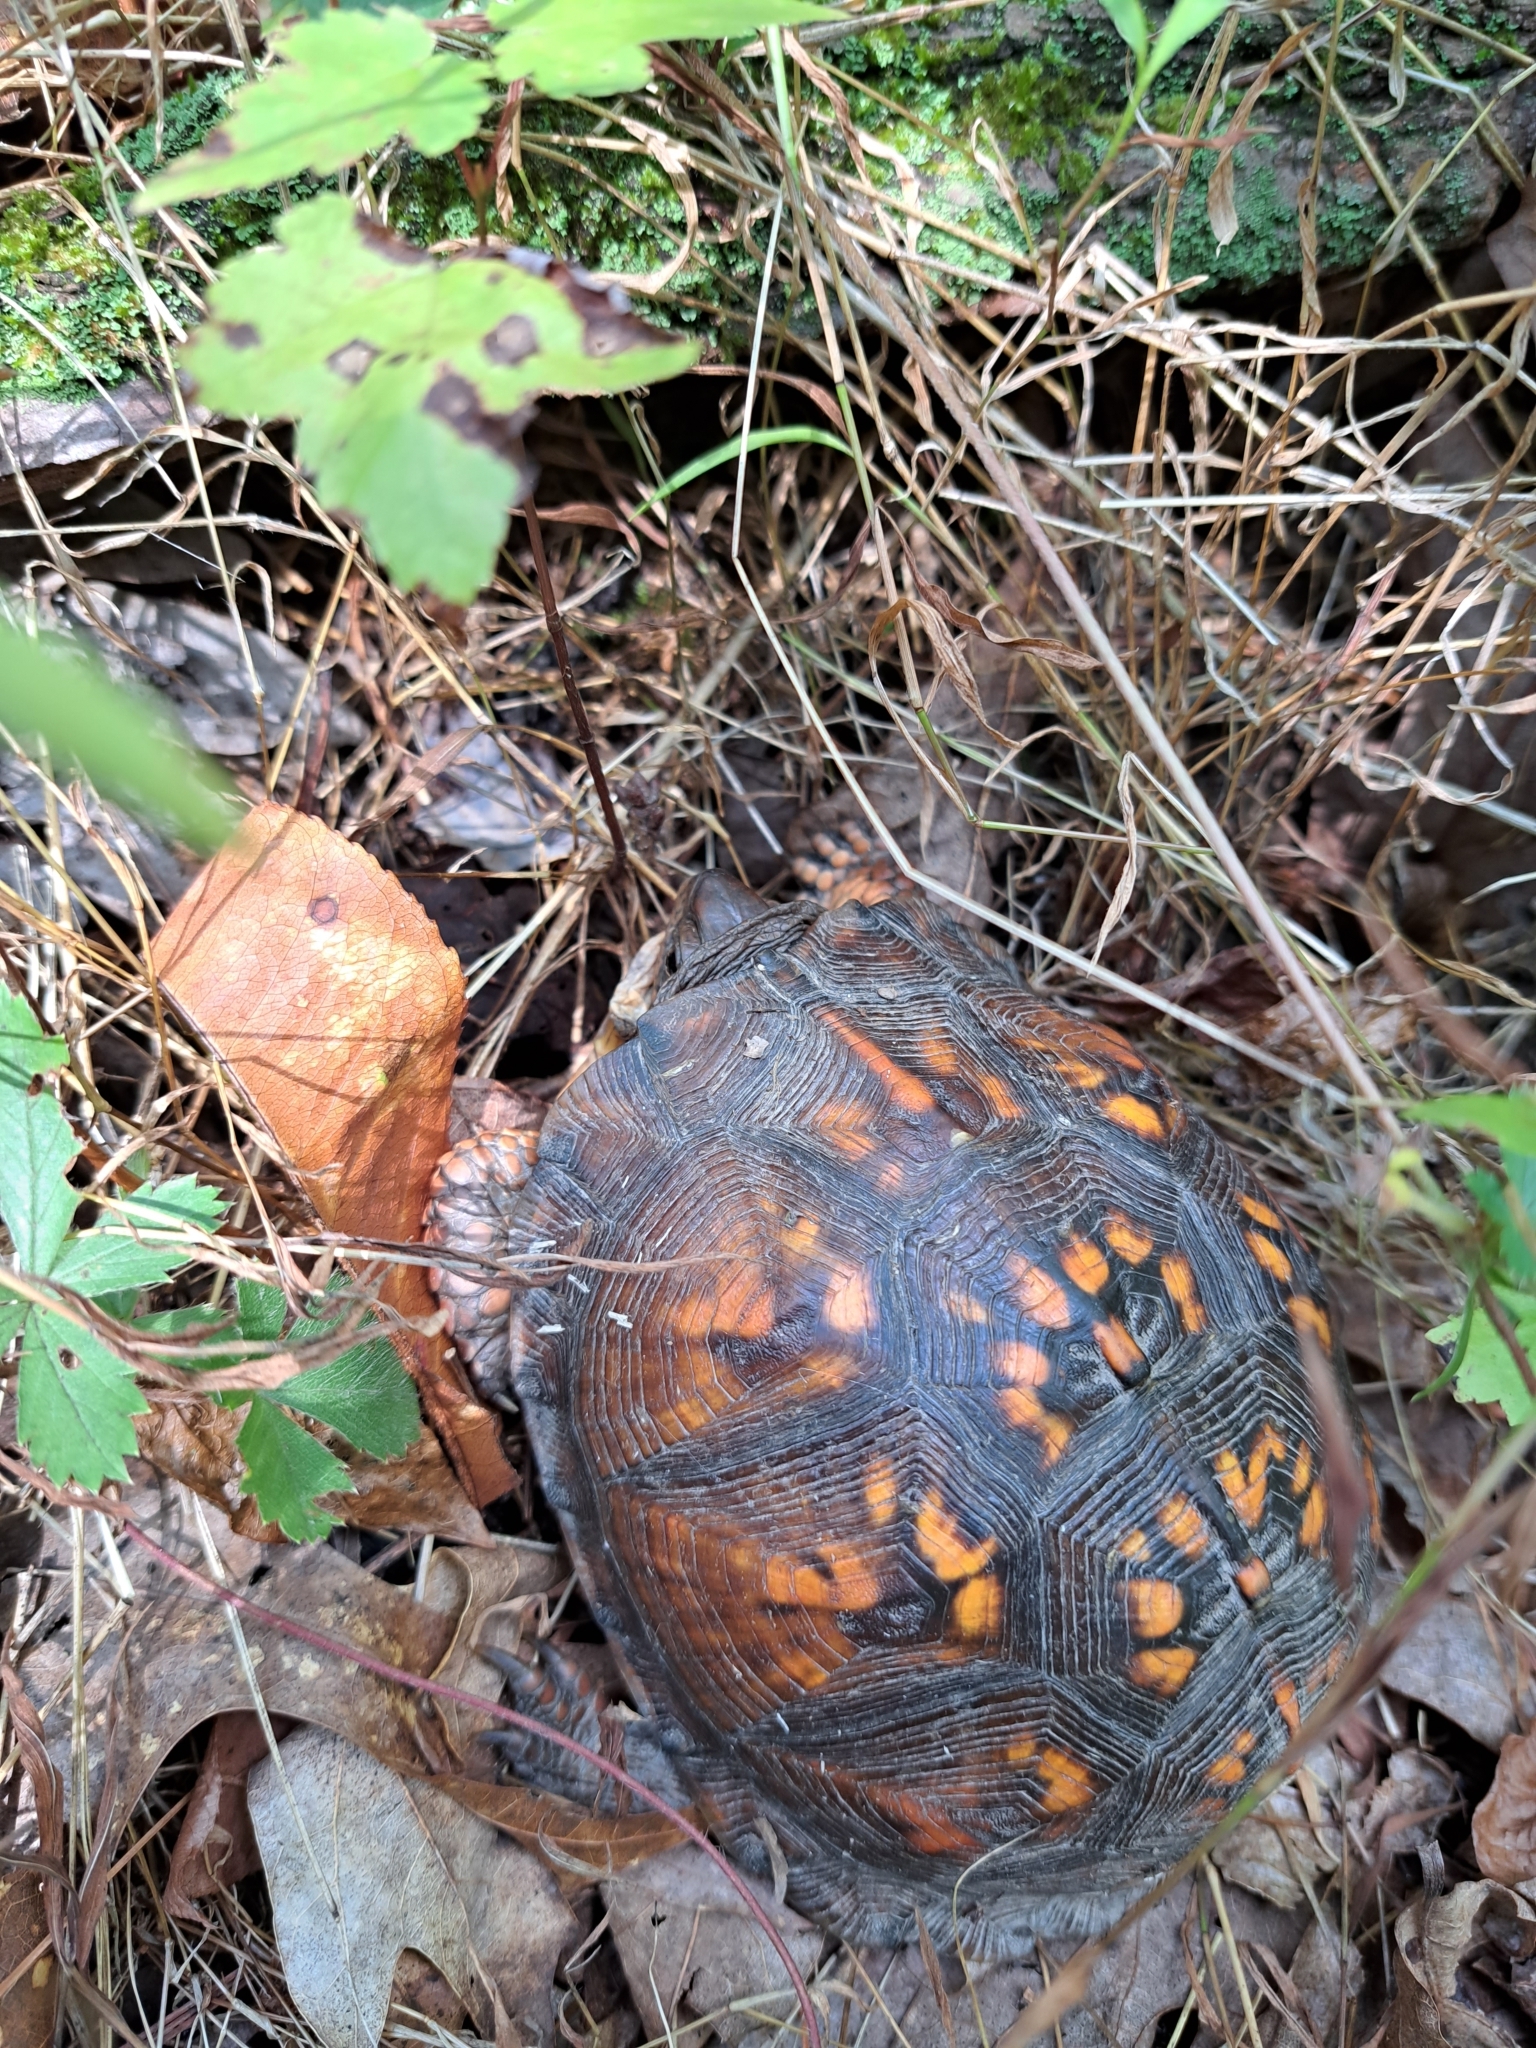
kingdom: Animalia
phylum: Chordata
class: Testudines
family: Emydidae
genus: Terrapene
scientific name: Terrapene carolina
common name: Common box turtle
